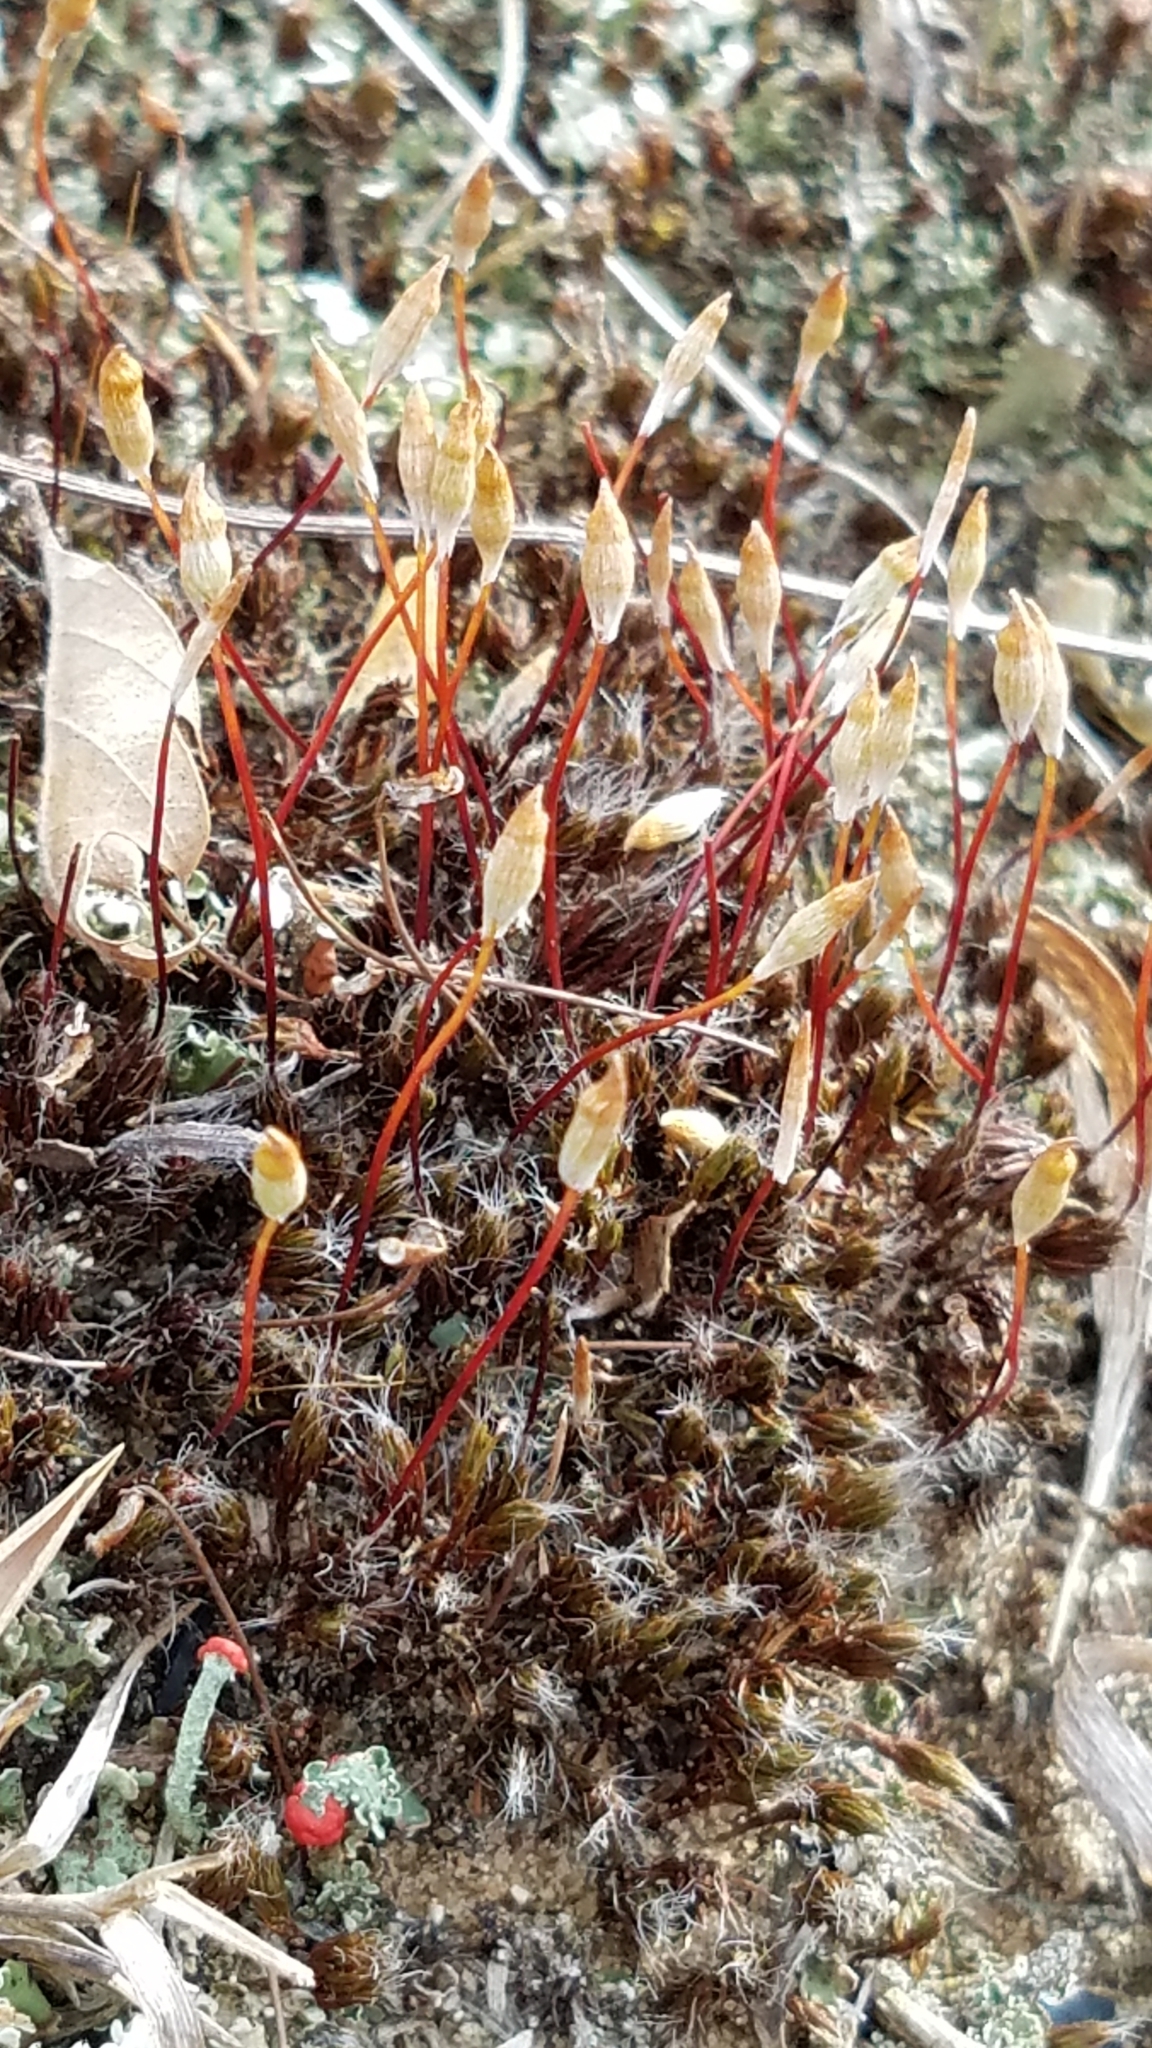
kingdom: Plantae
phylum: Bryophyta
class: Polytrichopsida
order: Polytrichales
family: Polytrichaceae
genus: Polytrichum
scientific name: Polytrichum piliferum
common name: Bristly haircap
